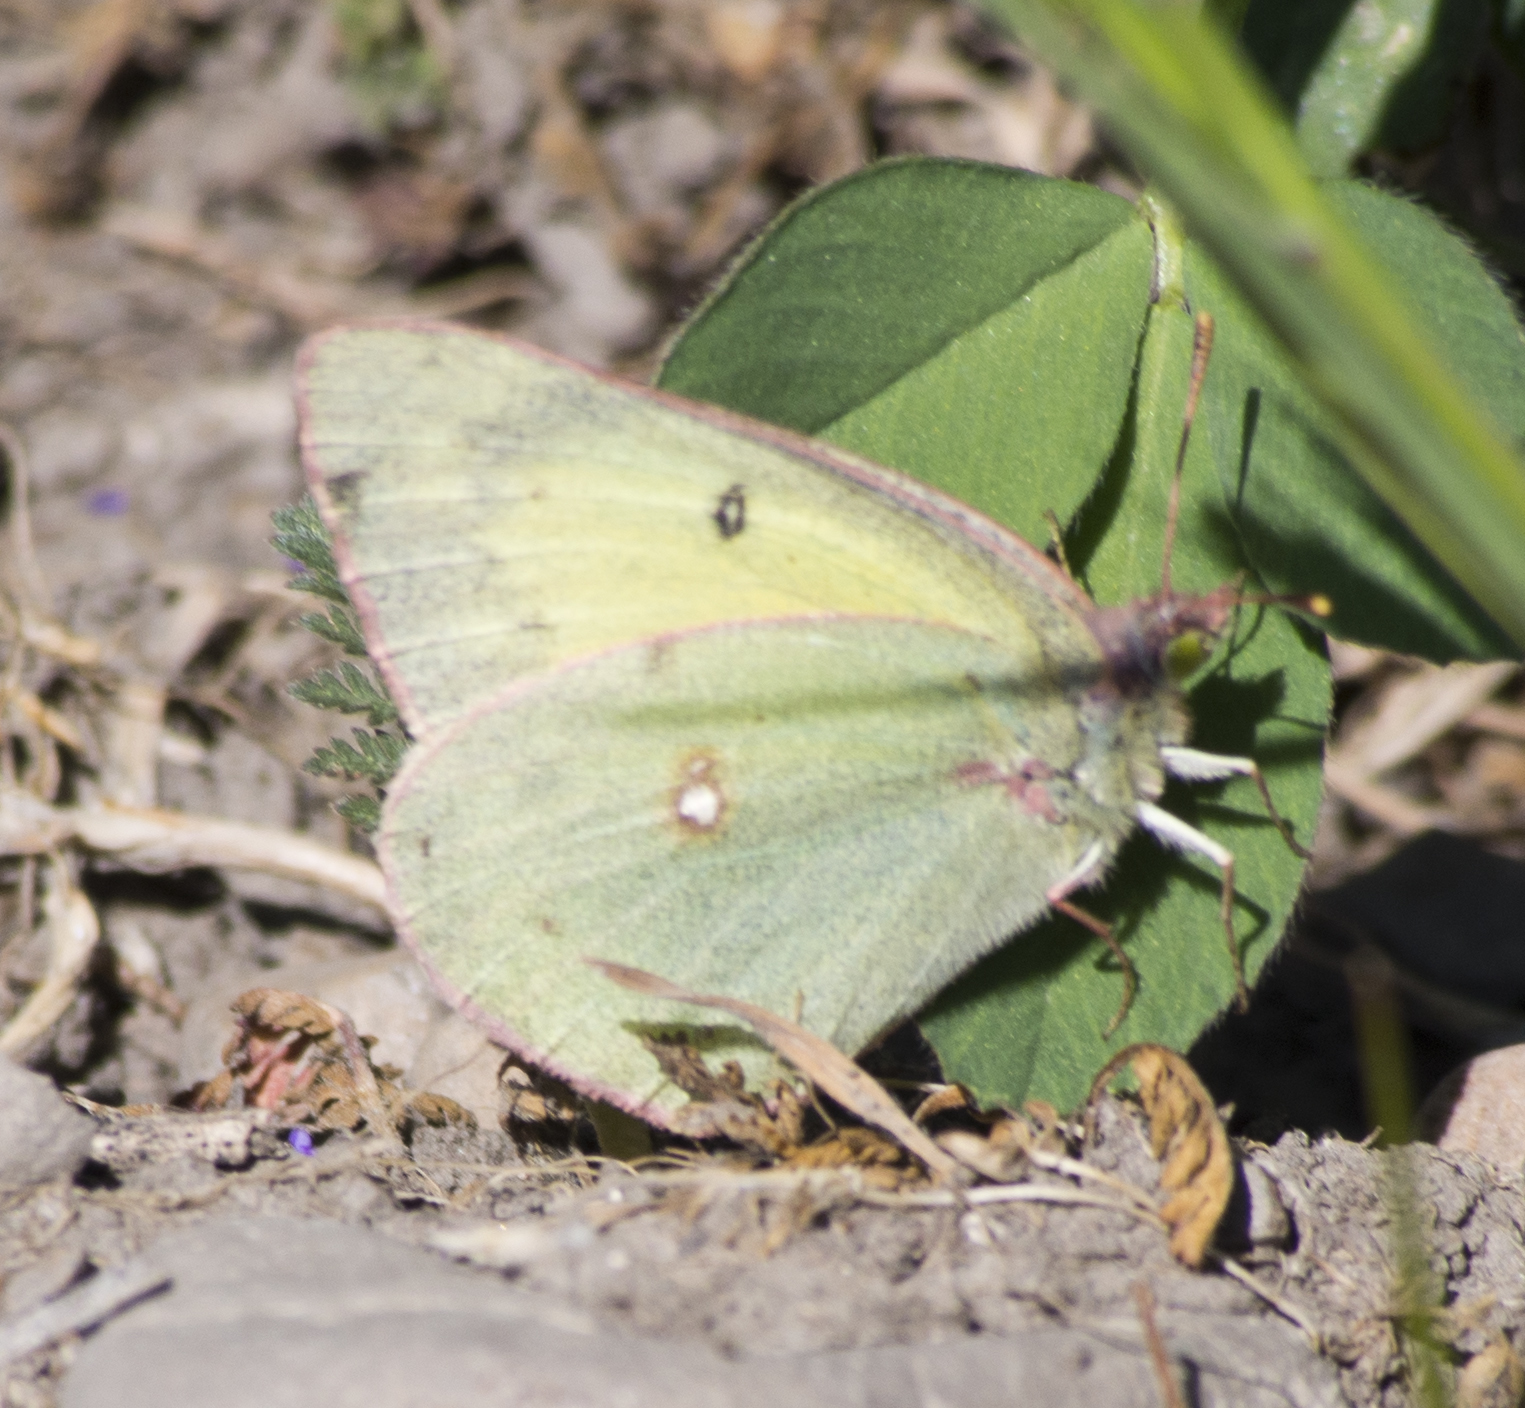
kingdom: Animalia
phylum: Arthropoda
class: Insecta
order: Lepidoptera
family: Pieridae
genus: Colias
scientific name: Colias philodice
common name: Clouded sulphur
